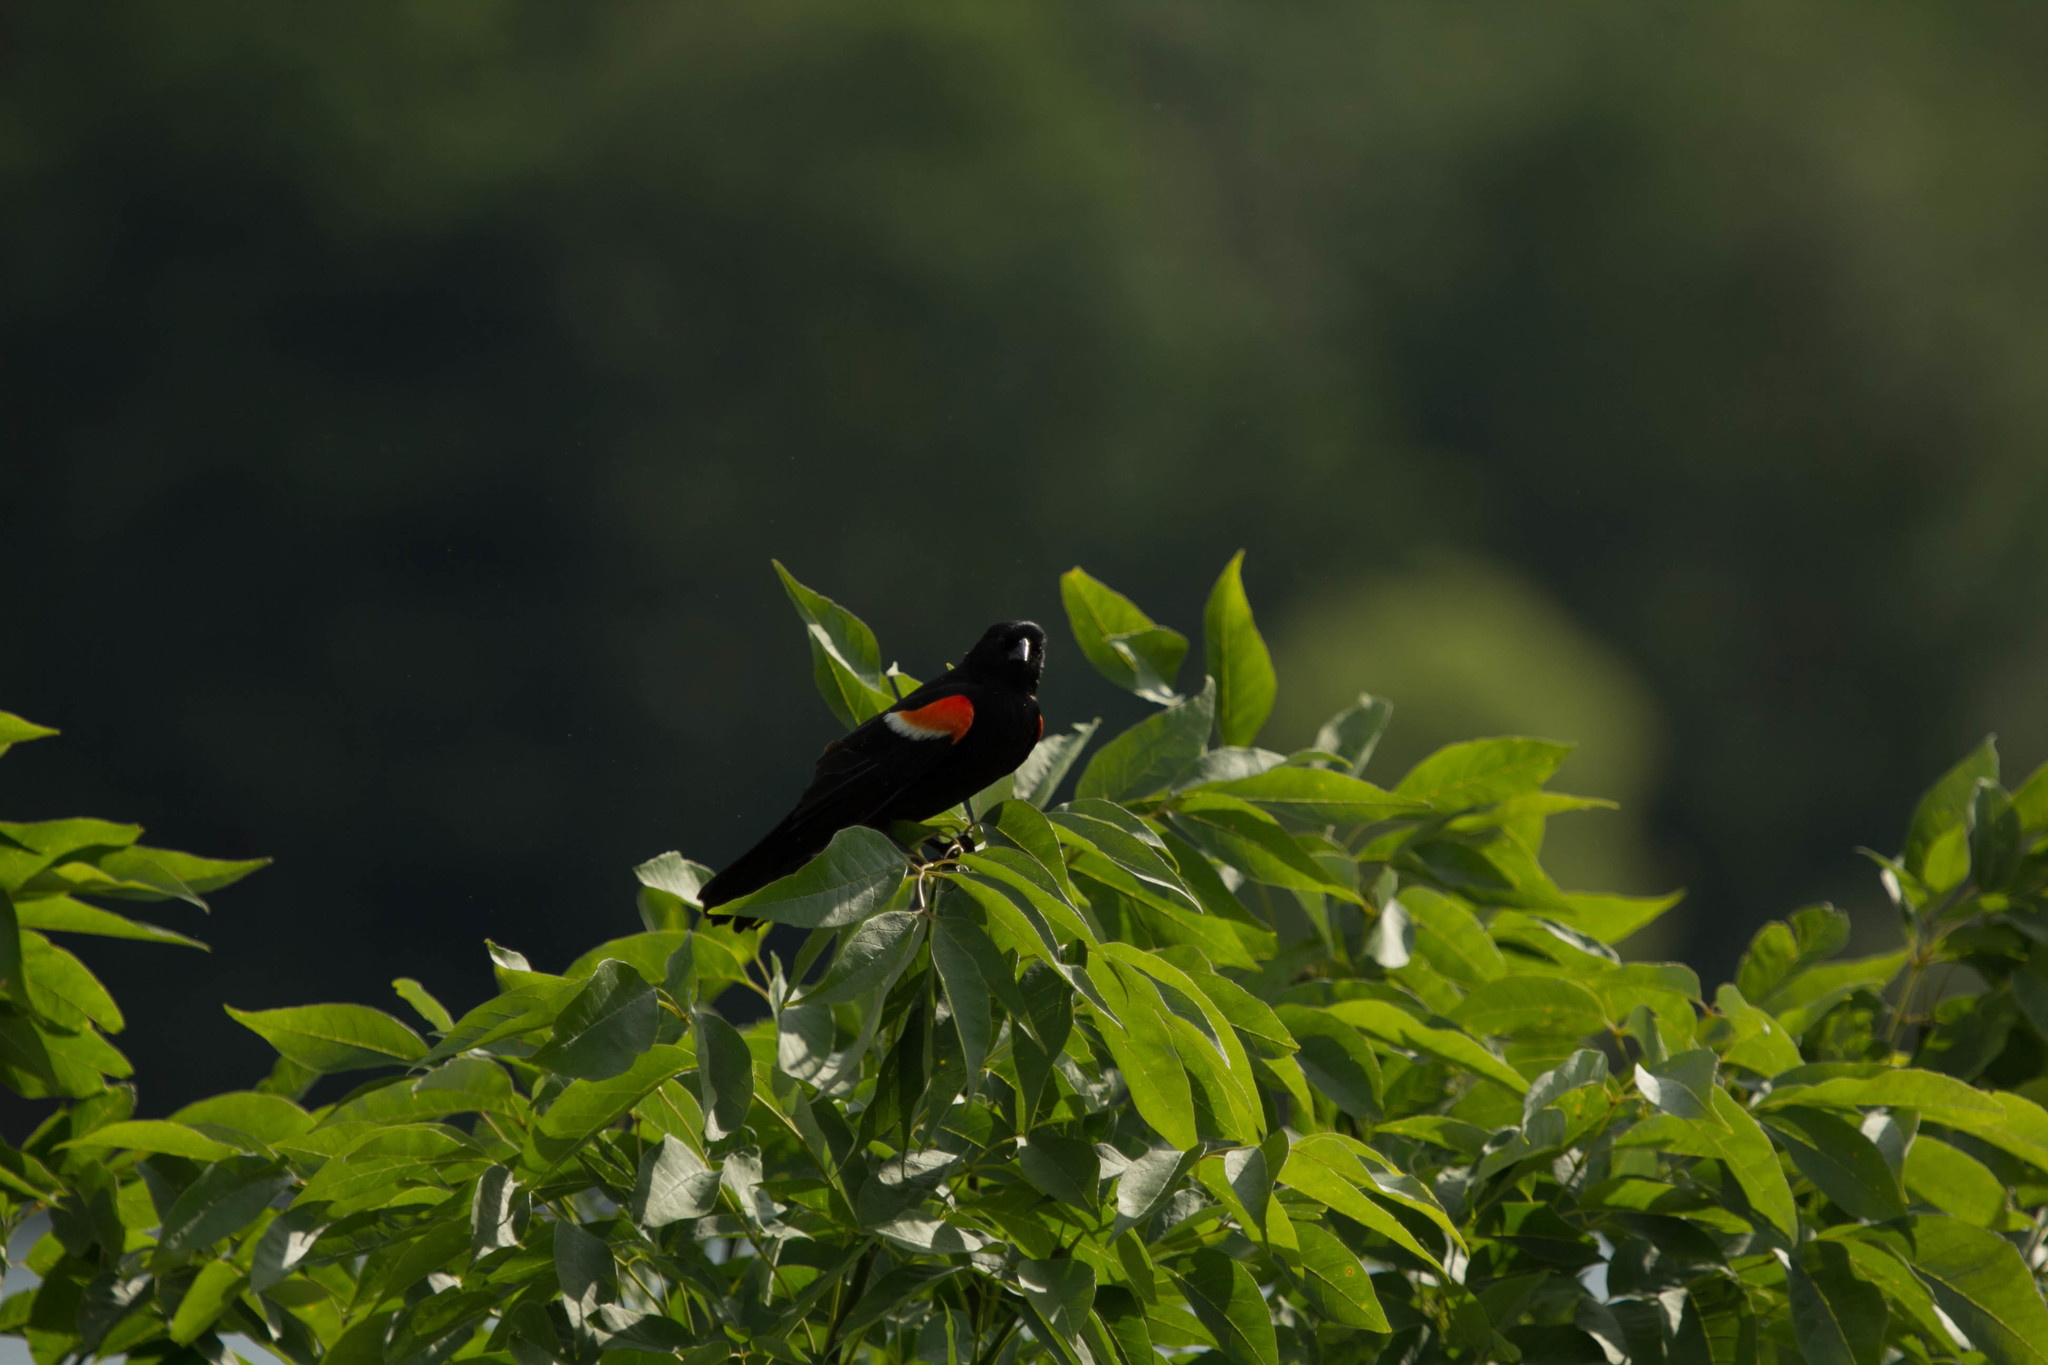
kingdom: Animalia
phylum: Chordata
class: Aves
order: Passeriformes
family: Icteridae
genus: Agelaius
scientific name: Agelaius phoeniceus
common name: Red-winged blackbird
